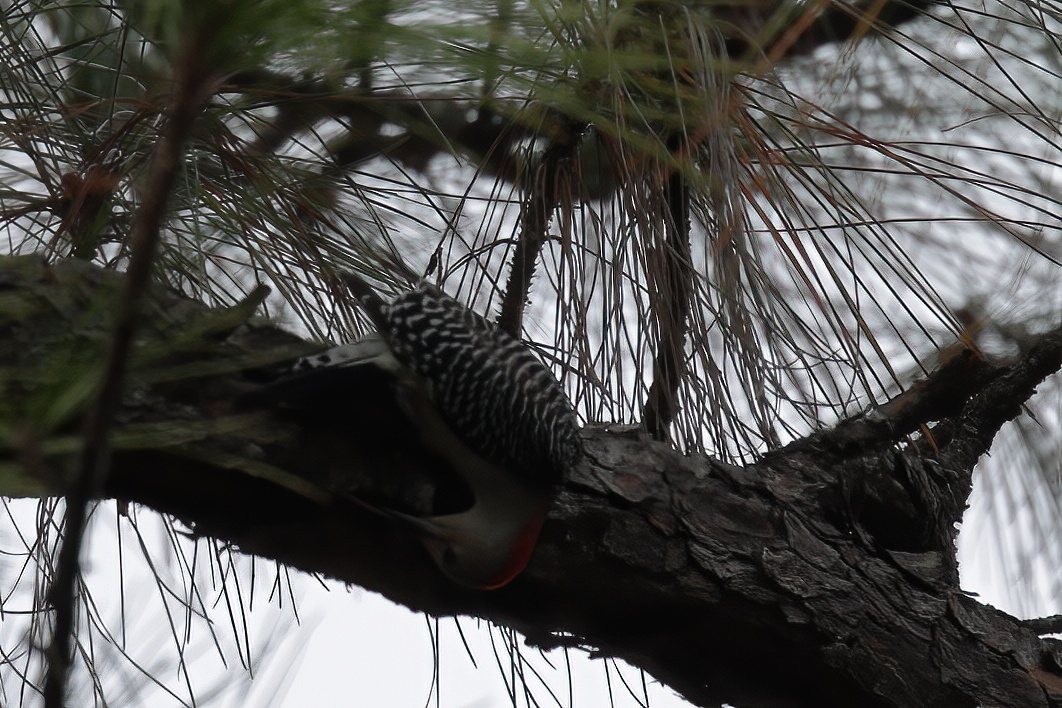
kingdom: Animalia
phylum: Chordata
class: Aves
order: Piciformes
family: Picidae
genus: Melanerpes
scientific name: Melanerpes carolinus
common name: Red-bellied woodpecker
